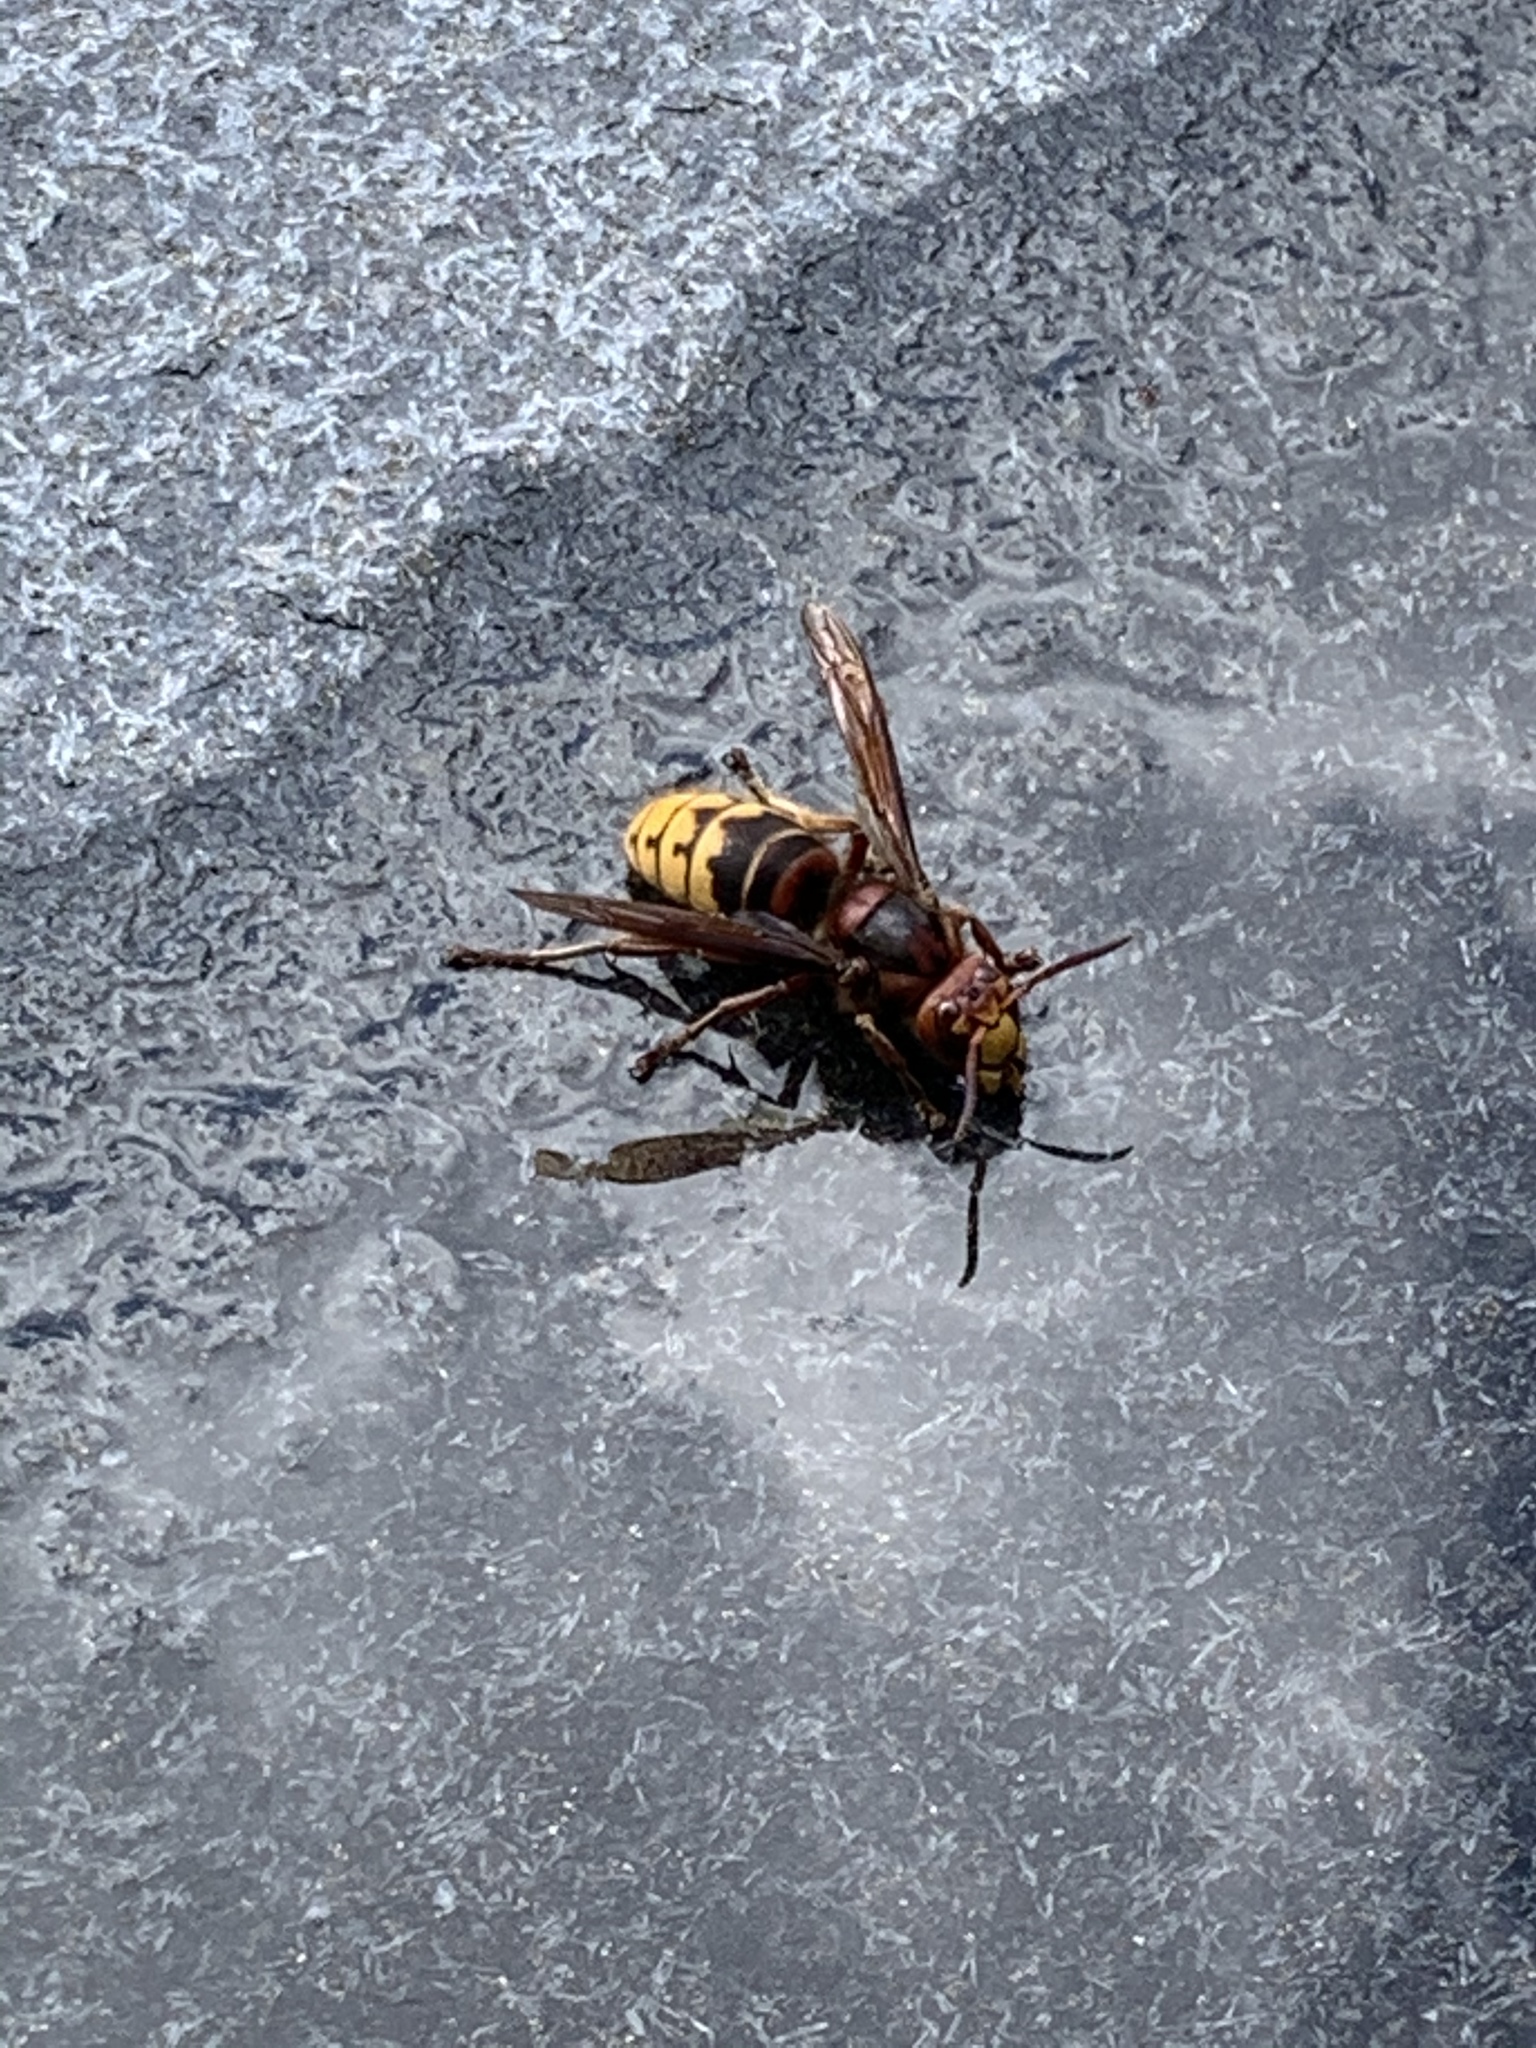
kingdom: Animalia
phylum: Arthropoda
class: Insecta
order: Hymenoptera
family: Vespidae
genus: Vespa
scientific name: Vespa crabro
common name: Hornet
